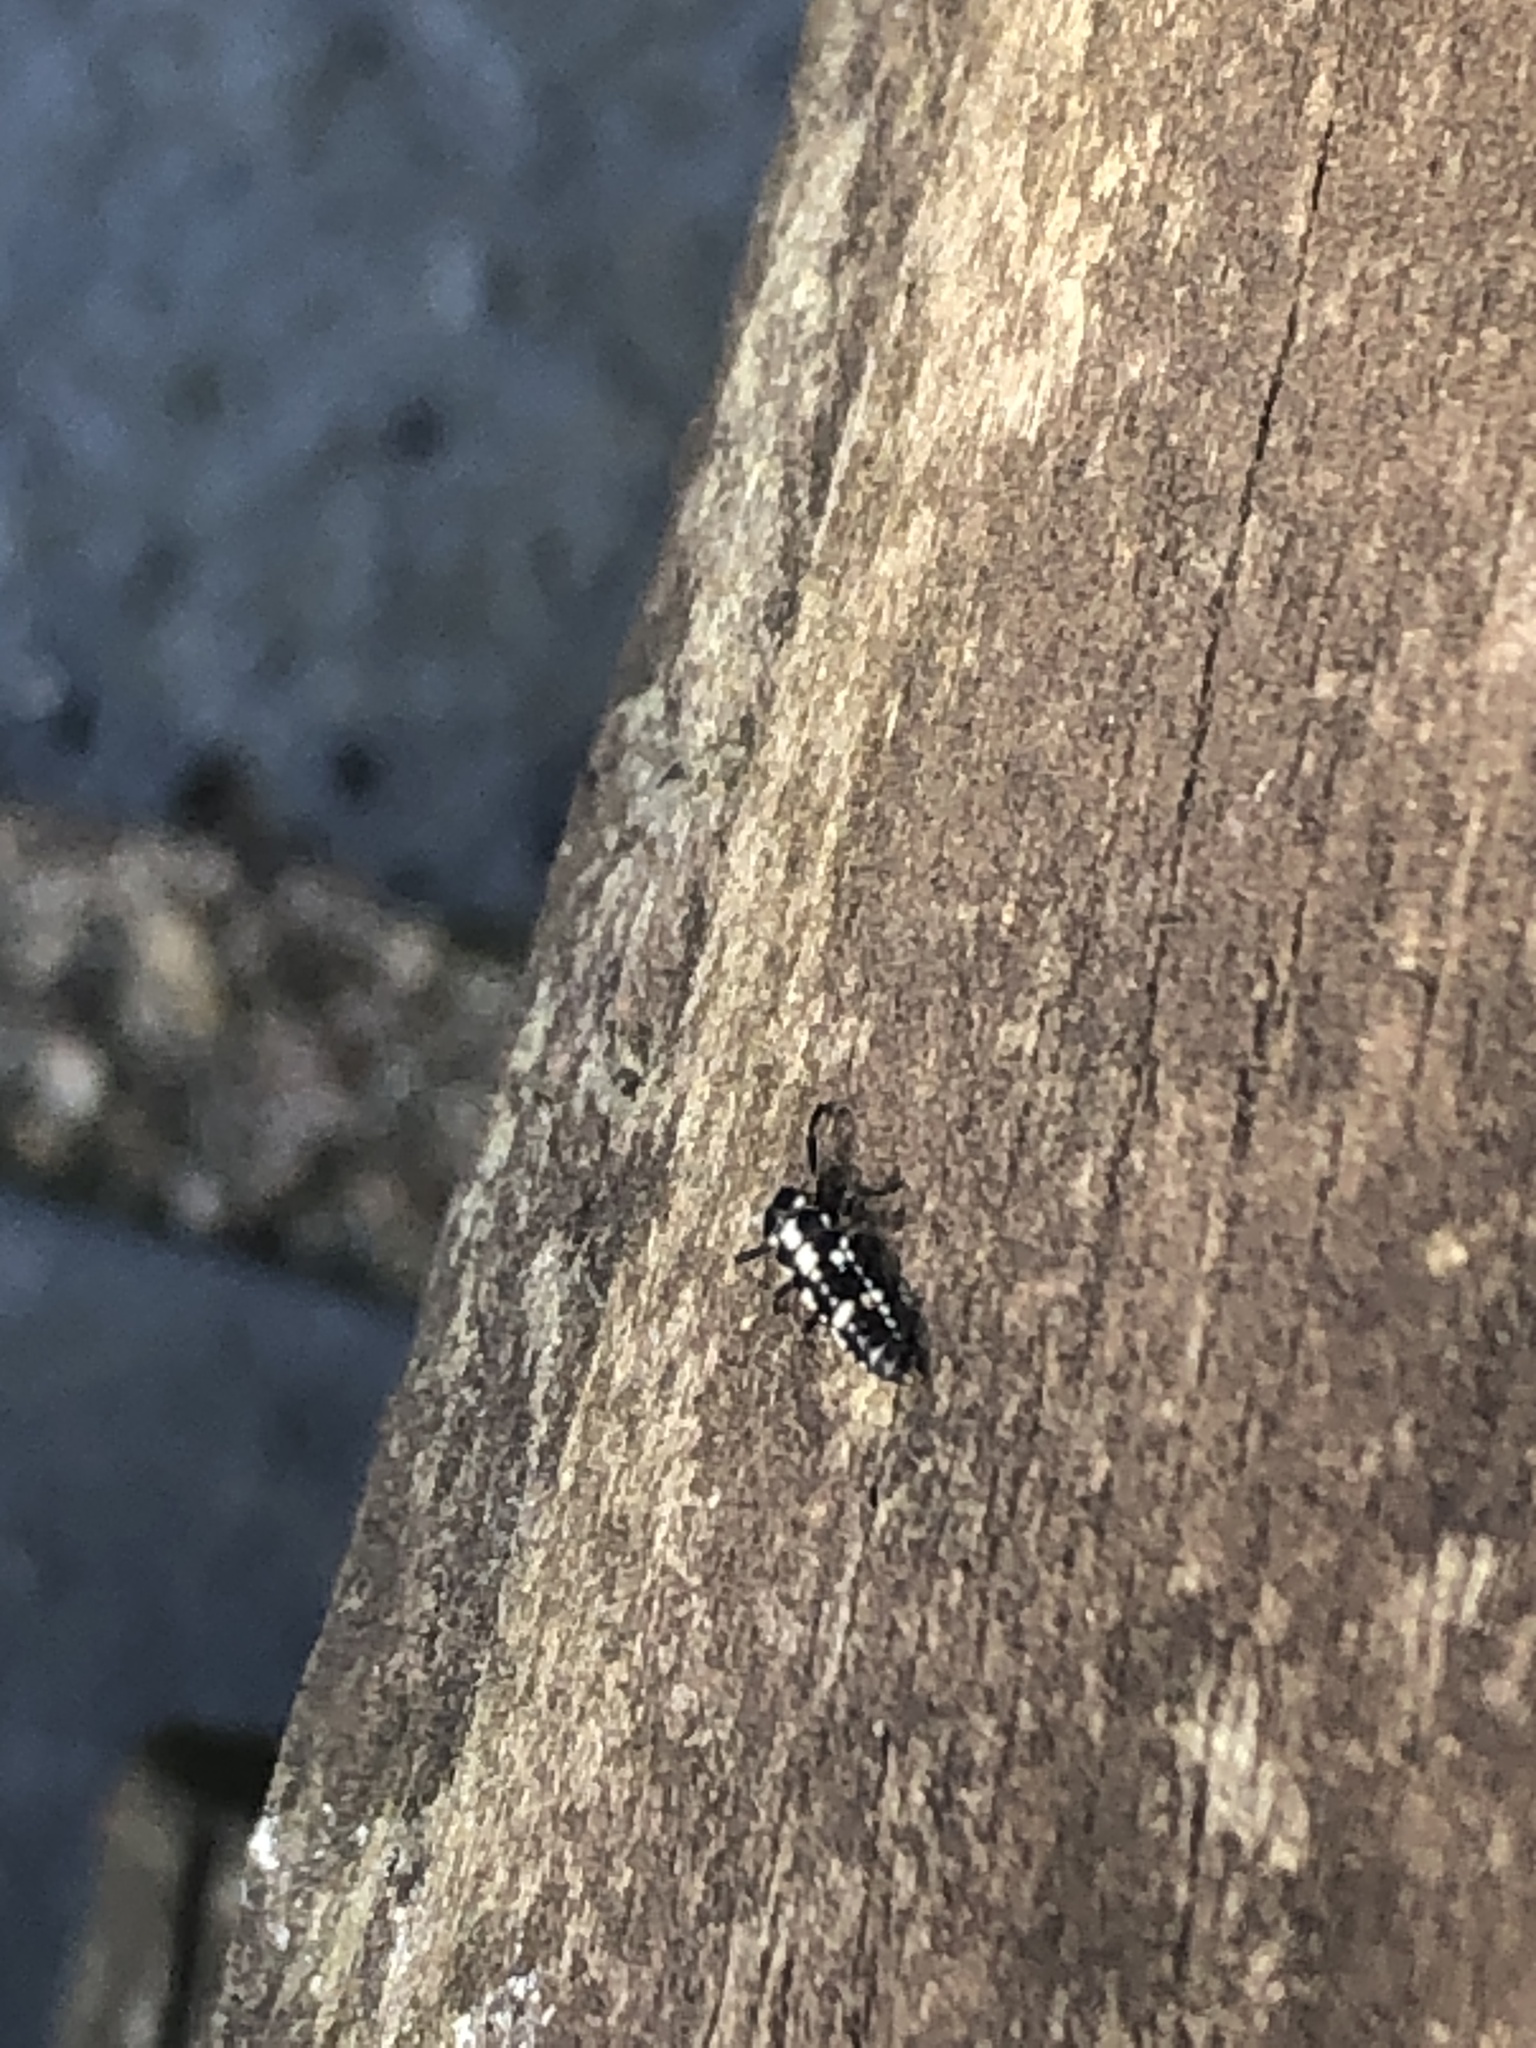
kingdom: Animalia
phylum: Arthropoda
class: Insecta
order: Coleoptera
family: Coccinellidae
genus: Propylaea
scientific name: Propylaea quatuordecimpunctata
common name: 14-spotted ladybird beetle
